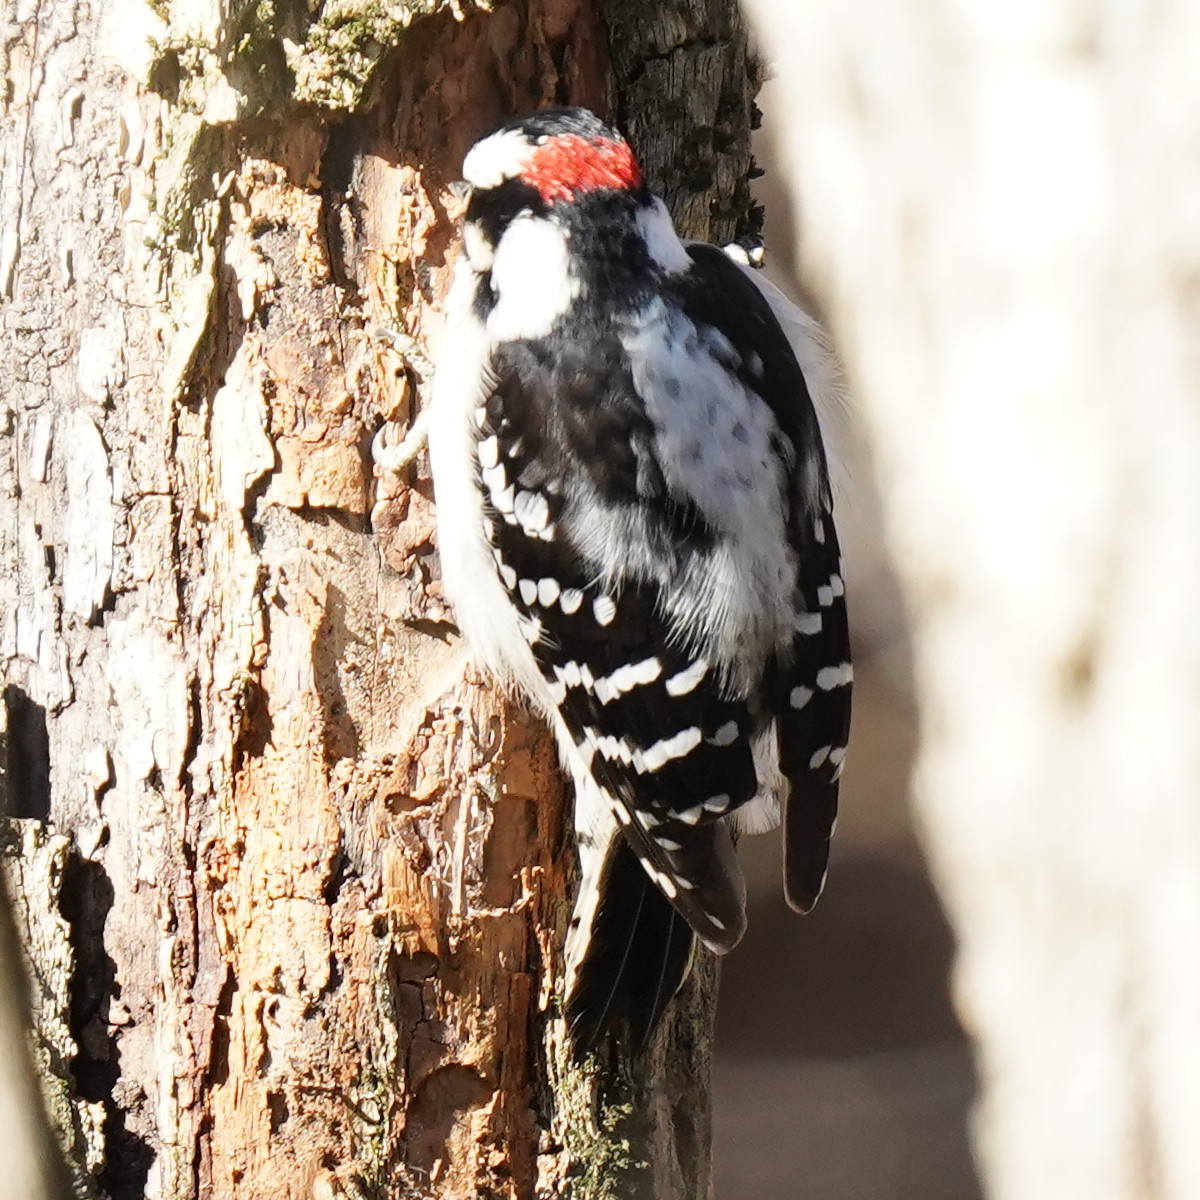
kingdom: Animalia
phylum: Chordata
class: Aves
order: Piciformes
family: Picidae
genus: Dryobates
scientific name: Dryobates pubescens
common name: Downy woodpecker
